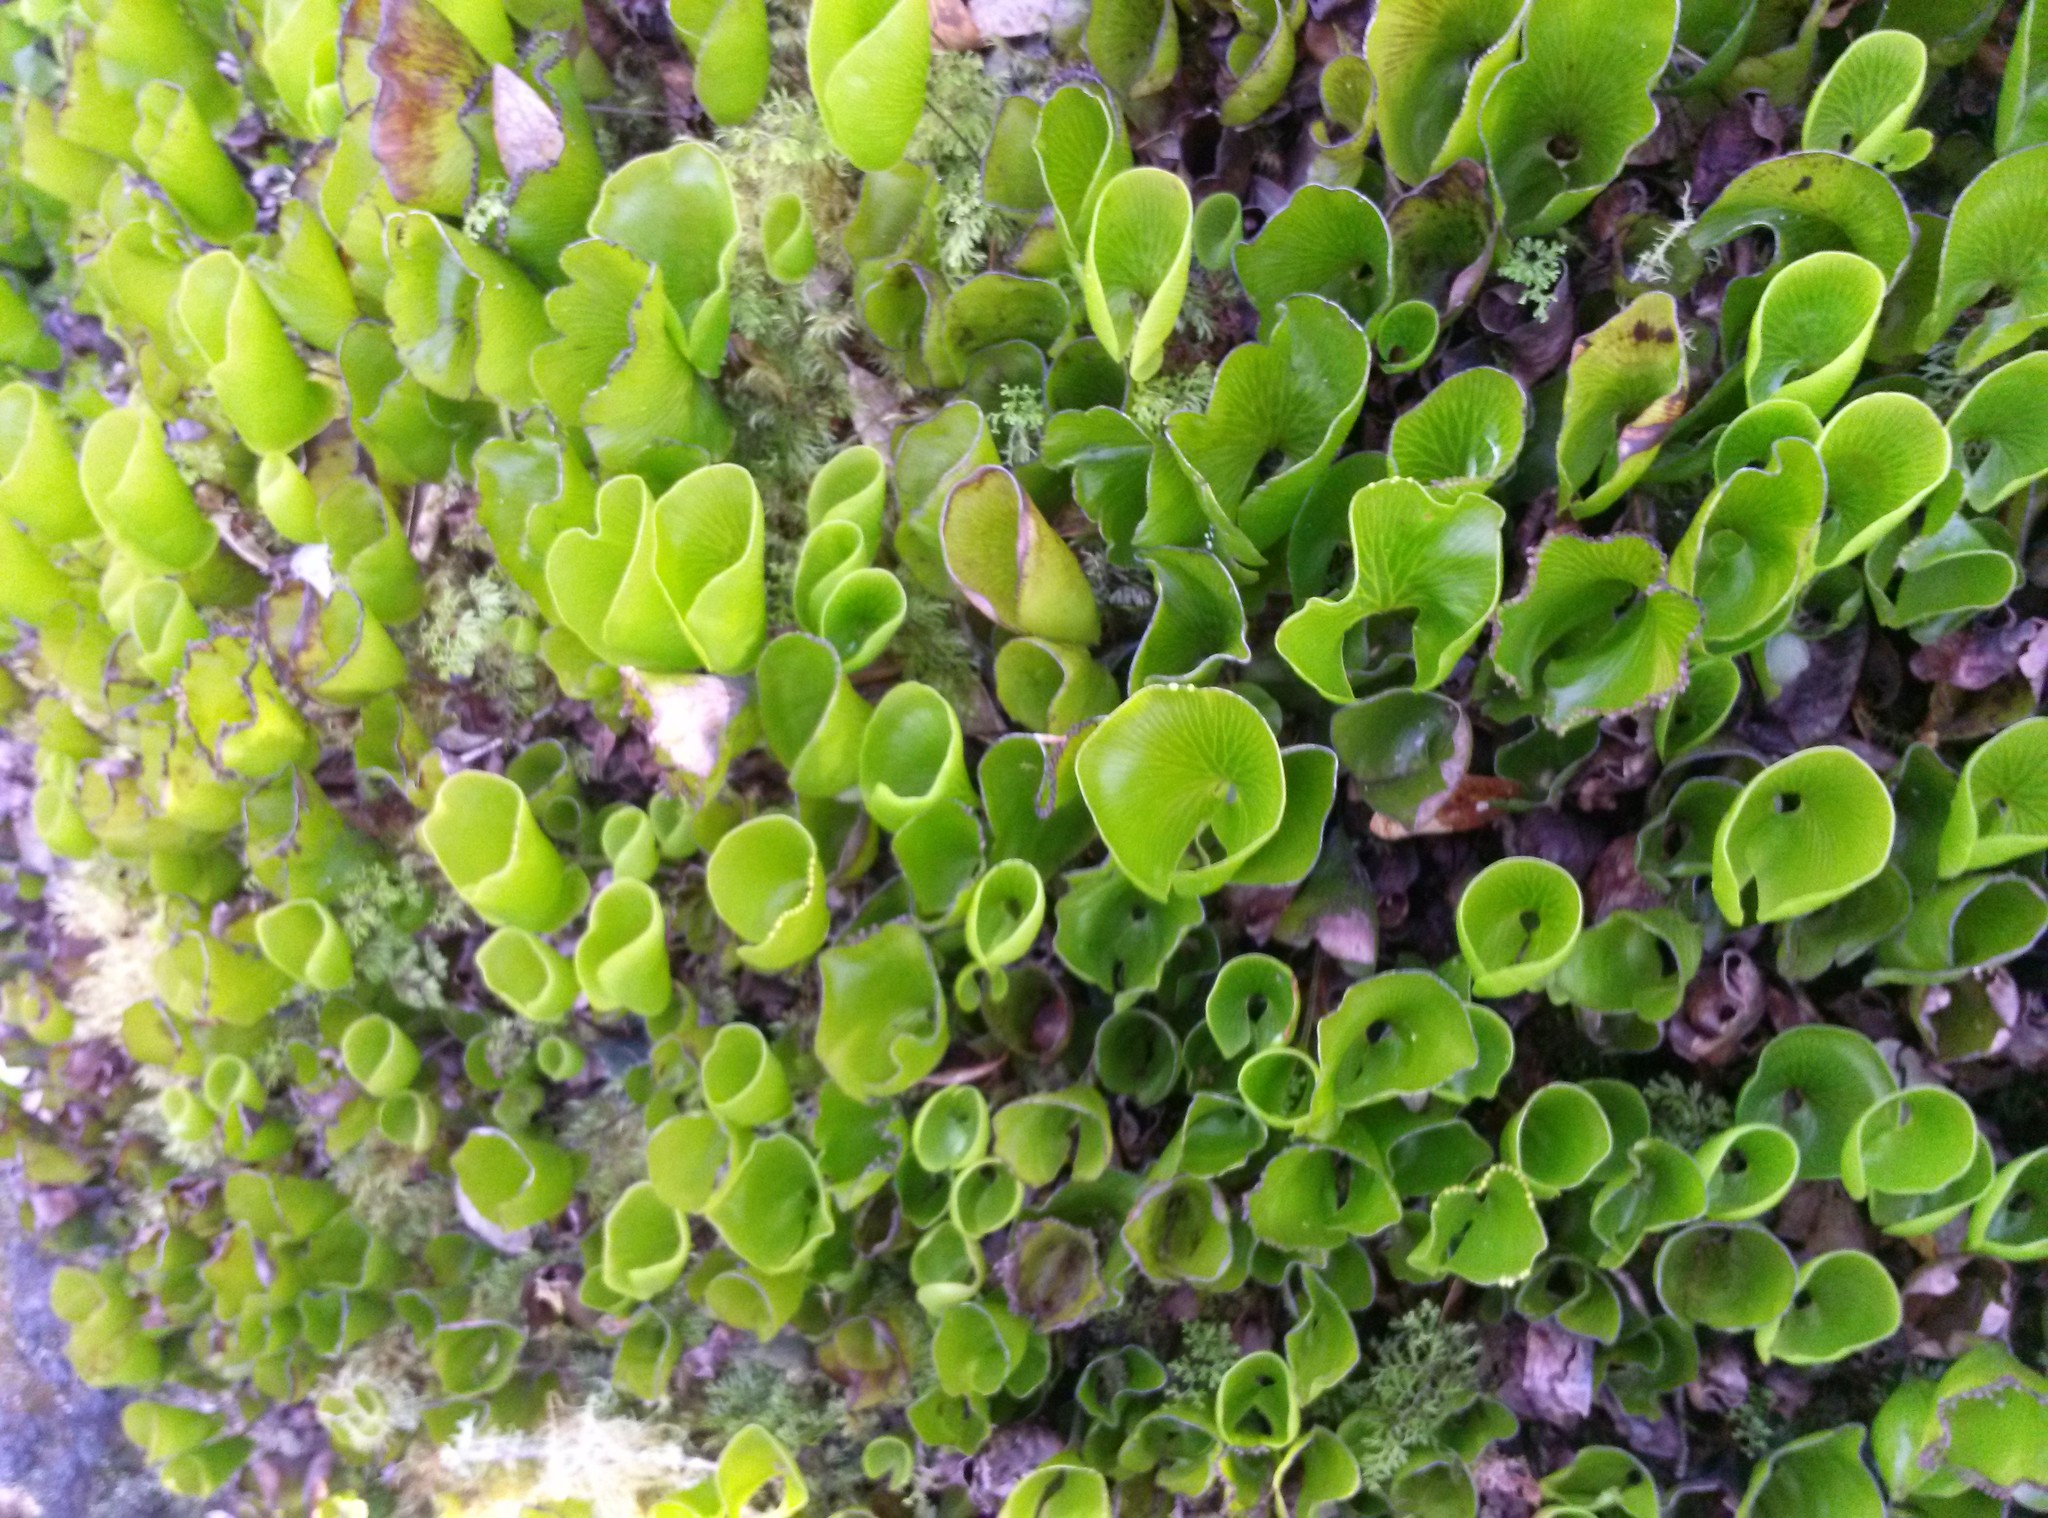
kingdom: Plantae
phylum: Tracheophyta
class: Polypodiopsida
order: Hymenophyllales
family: Hymenophyllaceae
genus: Hymenophyllum
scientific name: Hymenophyllum nephrophyllum
